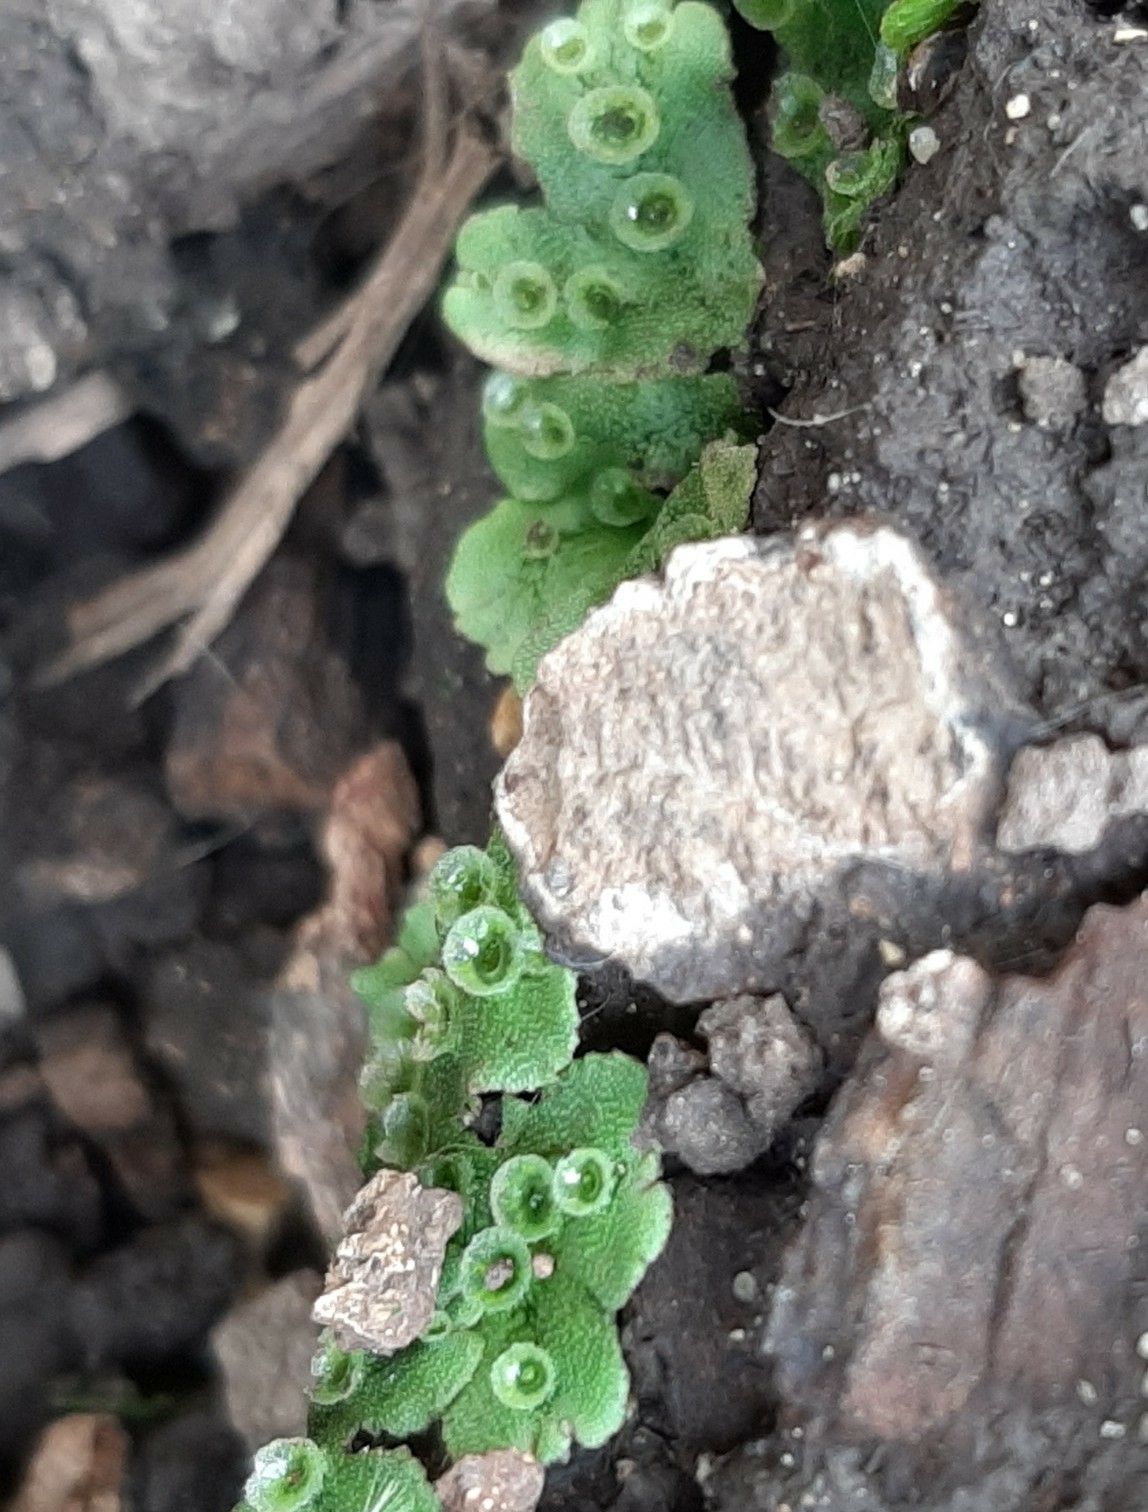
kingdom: Plantae
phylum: Marchantiophyta
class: Marchantiopsida
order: Marchantiales
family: Marchantiaceae
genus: Marchantia
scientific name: Marchantia polymorpha
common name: Common liverwort
